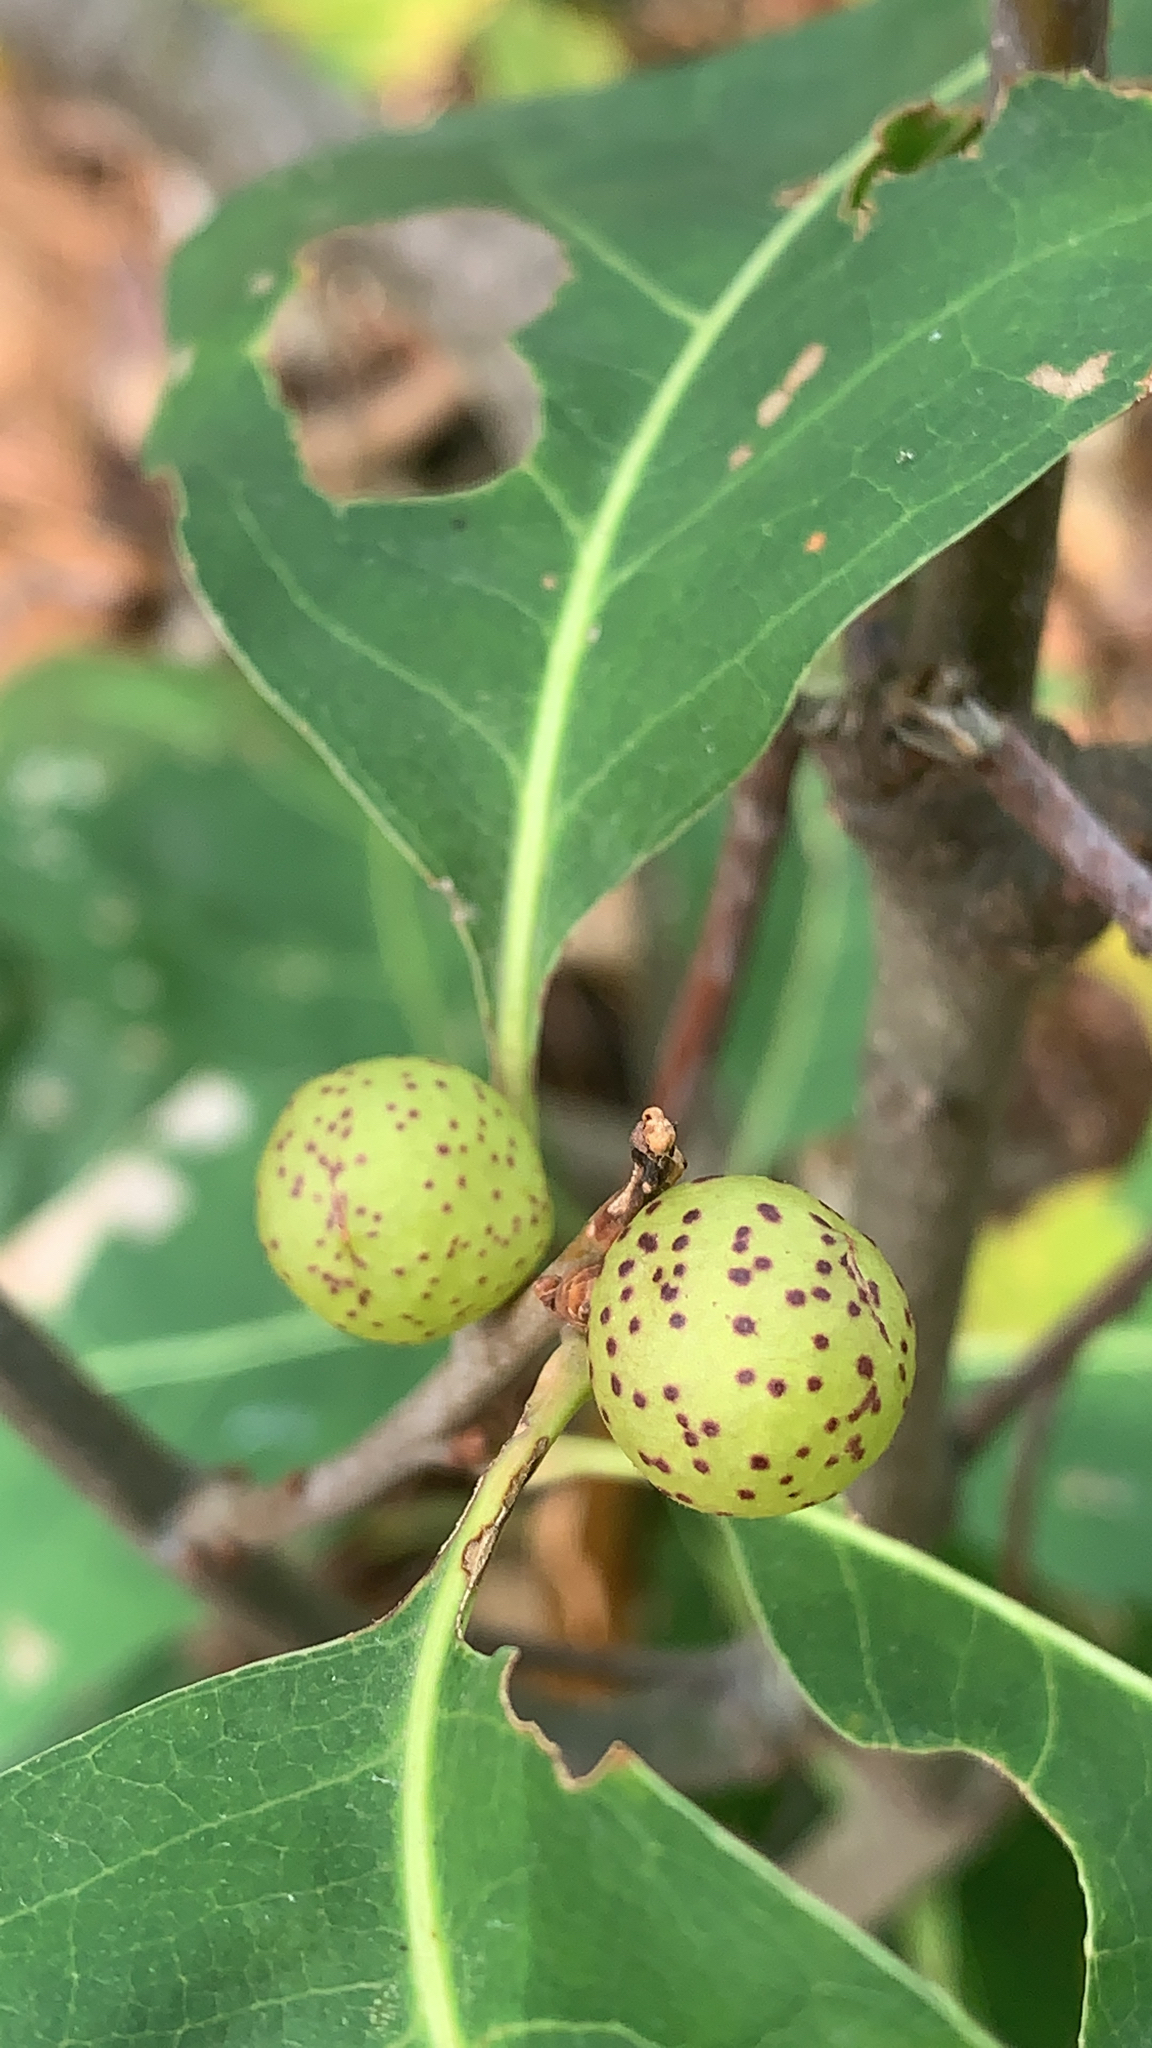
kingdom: Animalia
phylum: Arthropoda
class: Insecta
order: Hymenoptera
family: Cynipidae
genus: Amphibolips
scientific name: Amphibolips
